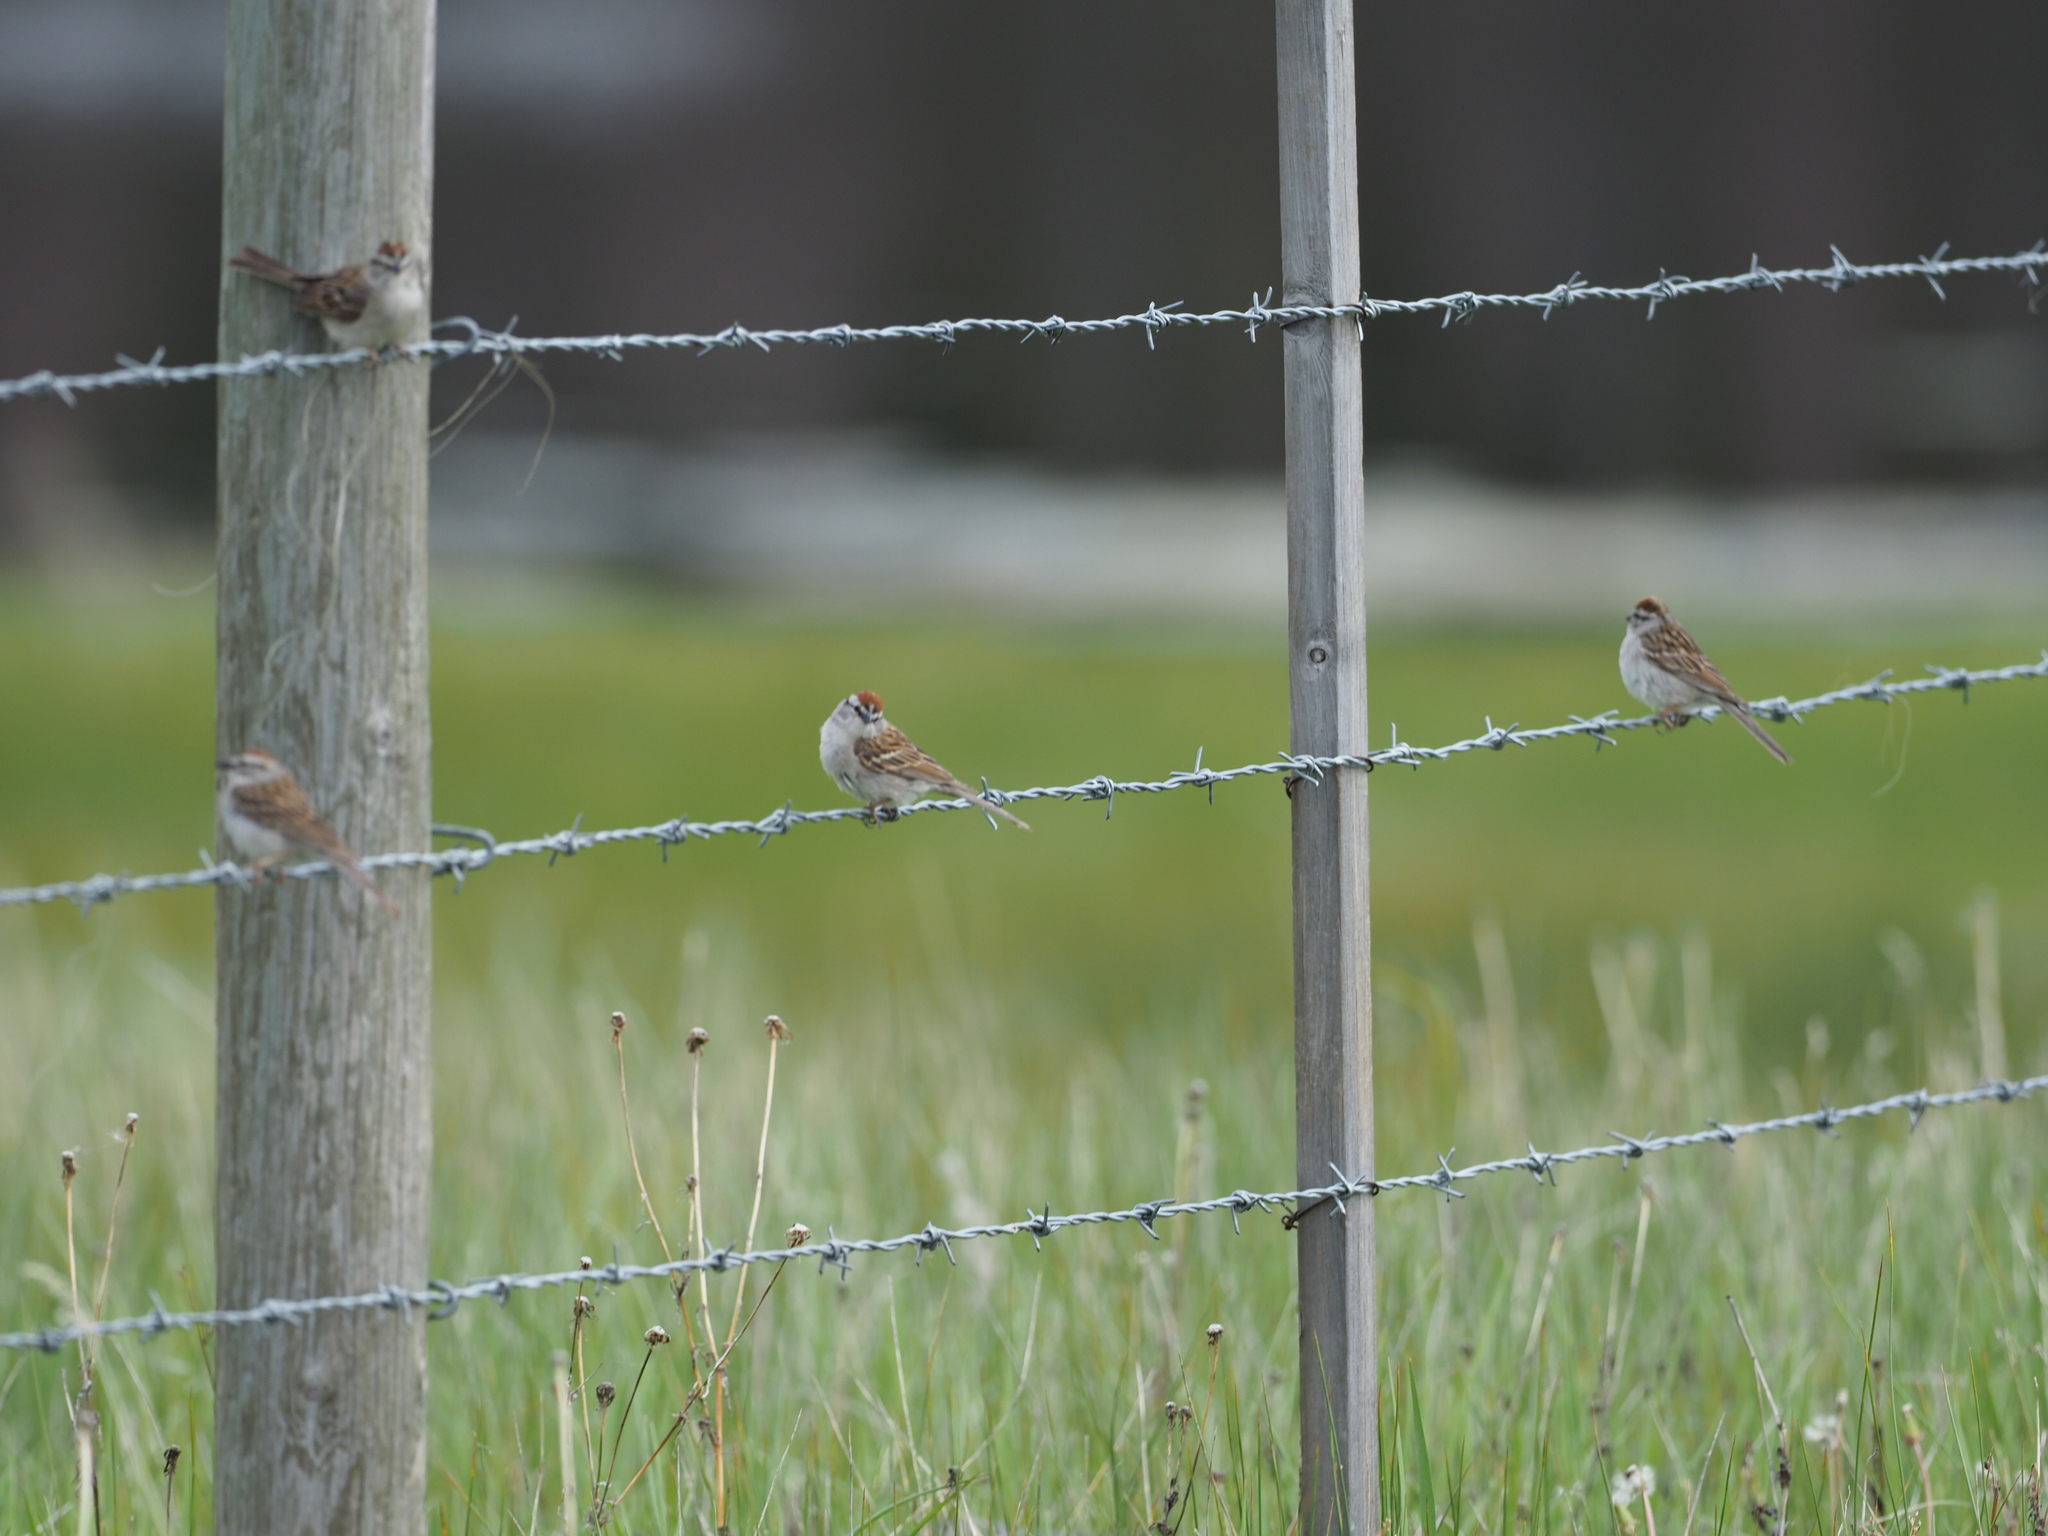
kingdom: Animalia
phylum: Chordata
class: Aves
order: Passeriformes
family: Passerellidae
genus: Spizella
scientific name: Spizella passerina
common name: Chipping sparrow
